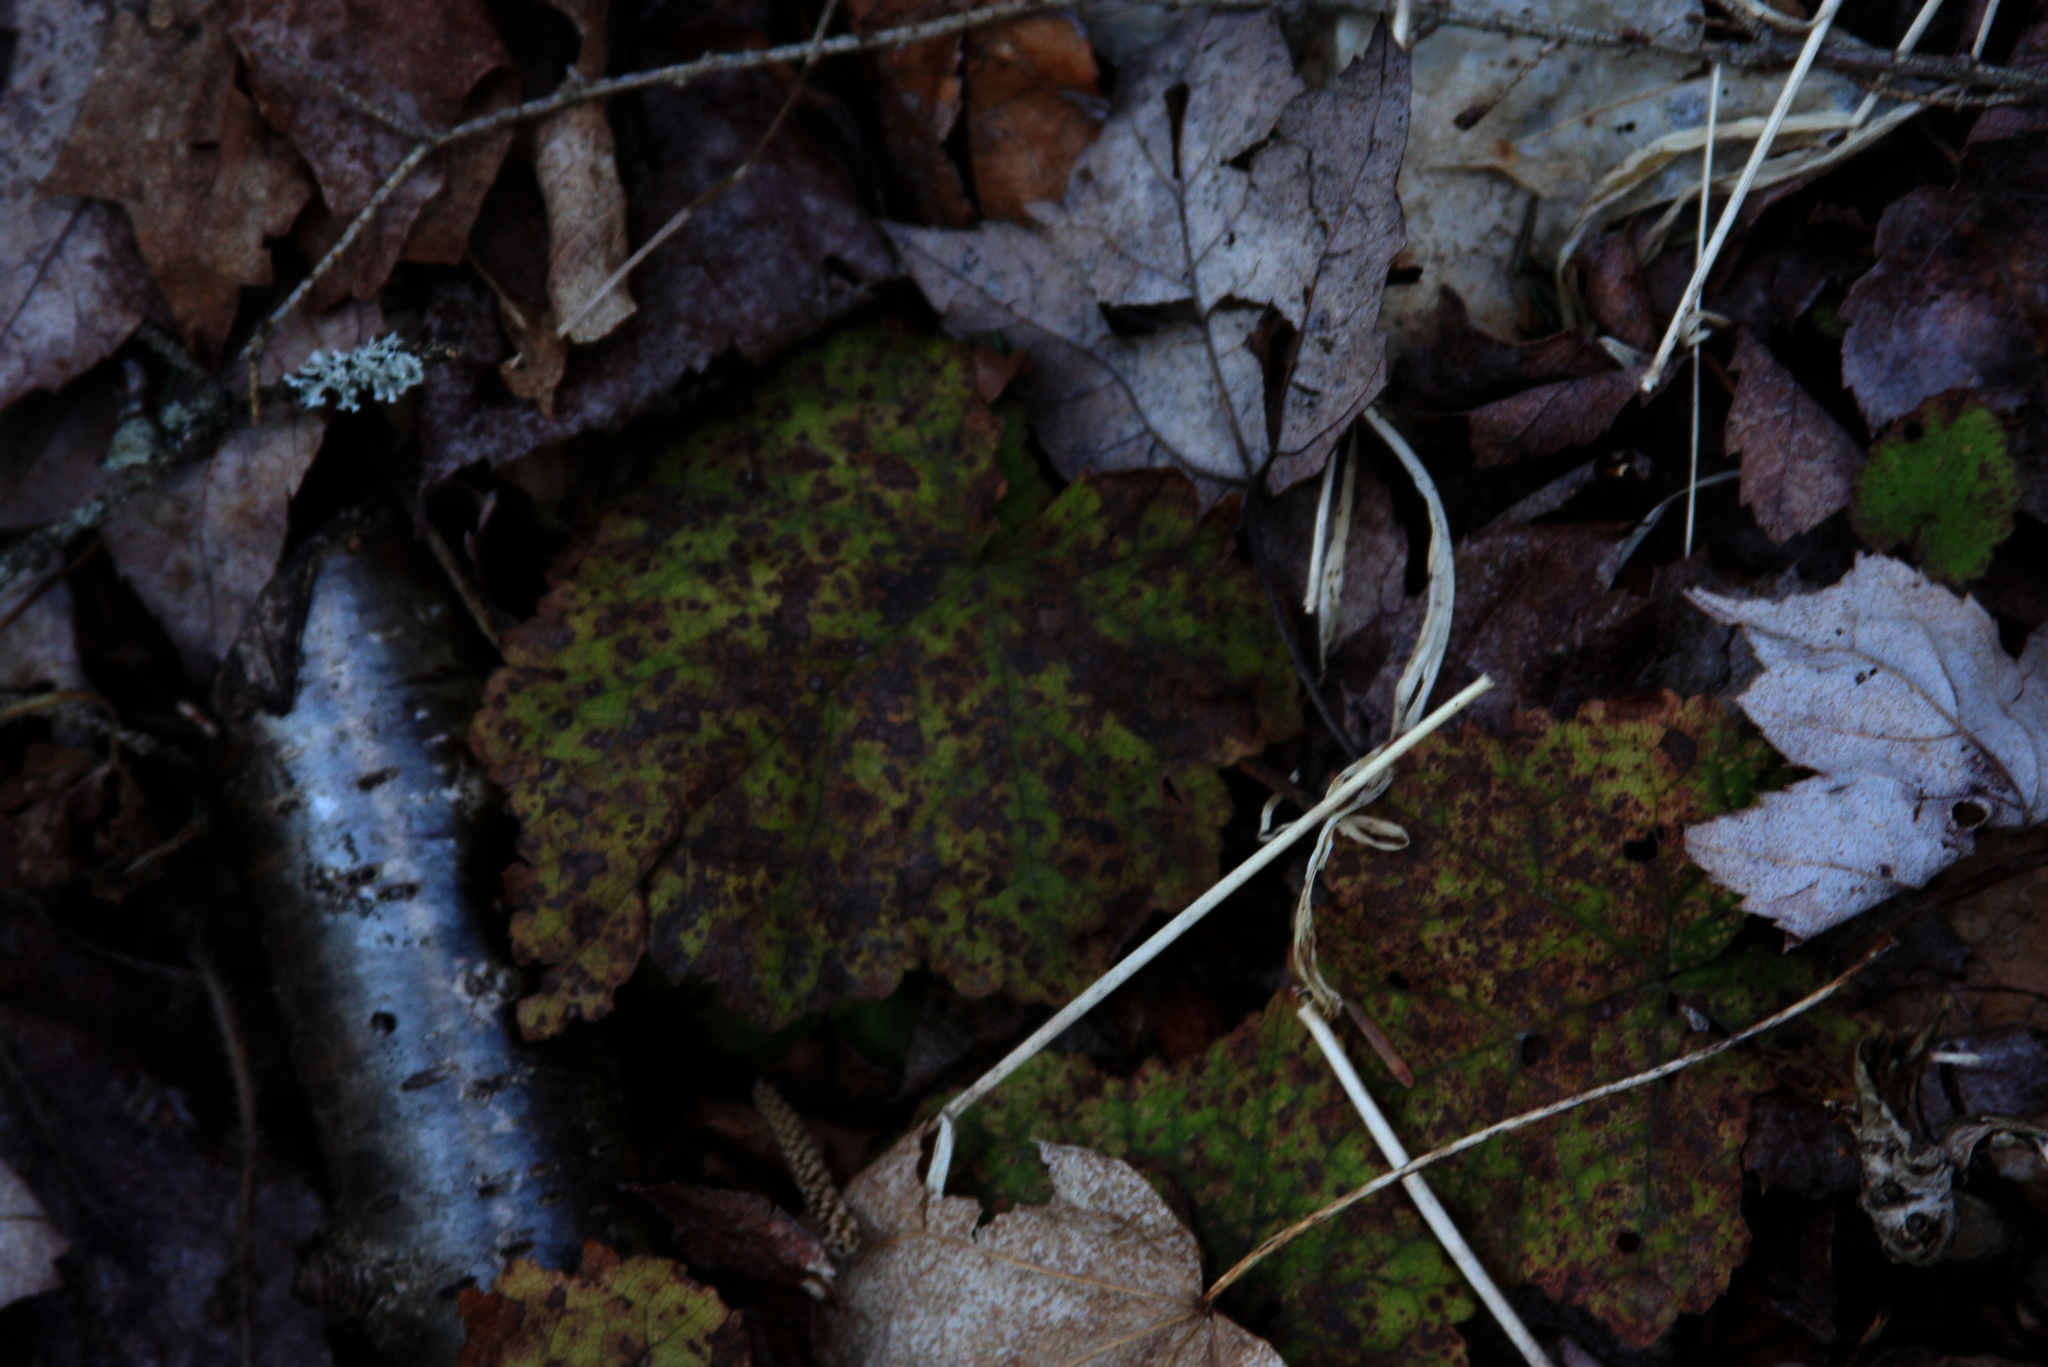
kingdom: Plantae
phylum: Tracheophyta
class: Magnoliopsida
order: Saxifragales
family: Saxifragaceae
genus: Tiarella
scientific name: Tiarella stolonifera
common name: Stoloniferous foamflower
